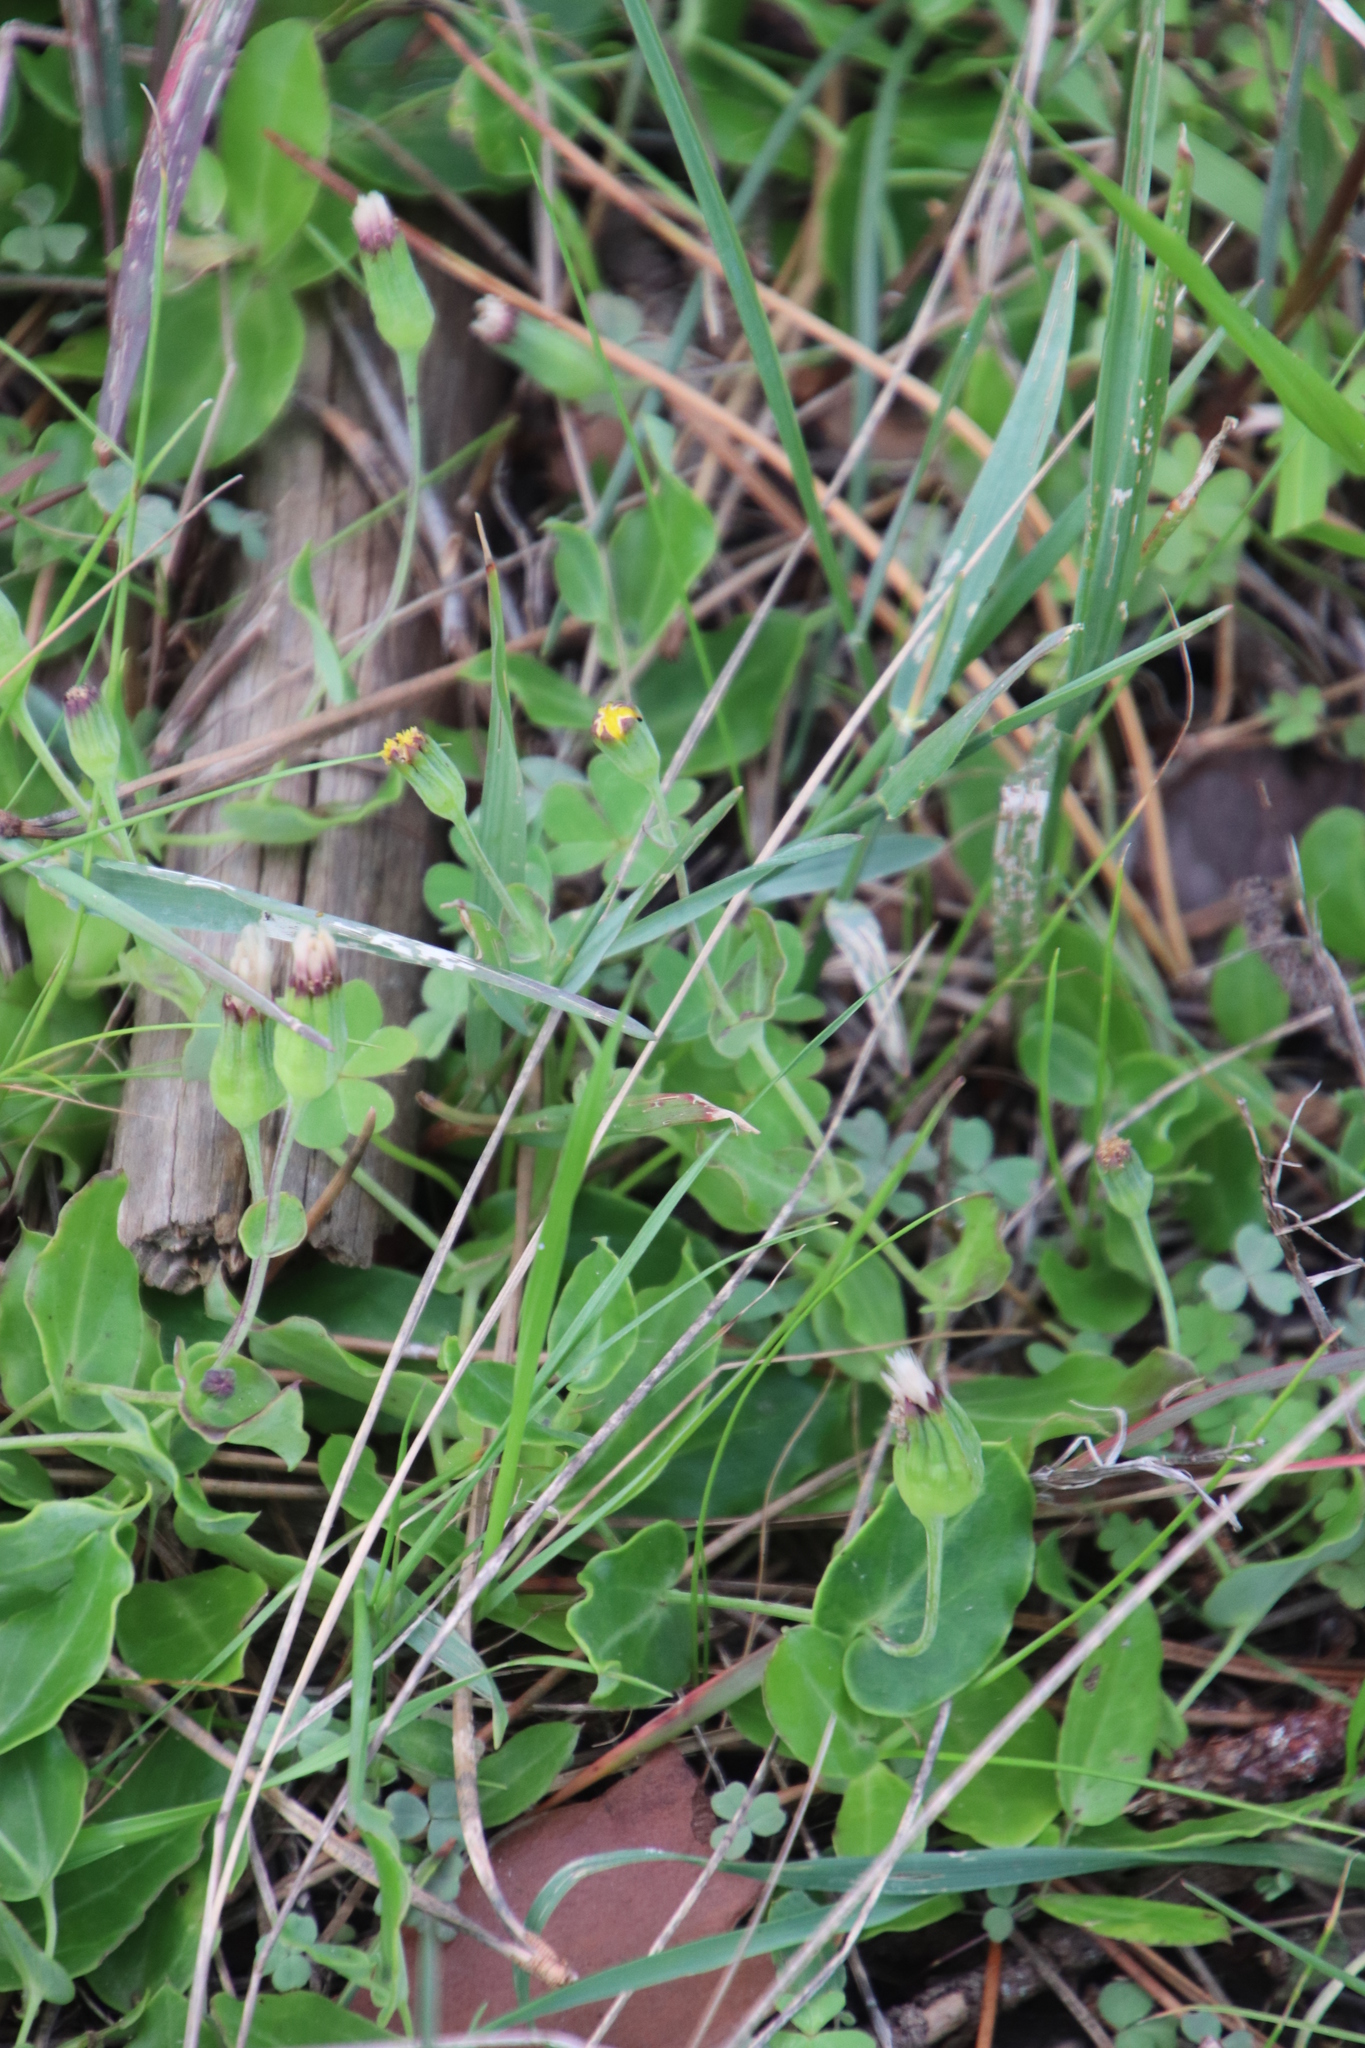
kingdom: Plantae
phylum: Tracheophyta
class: Magnoliopsida
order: Asterales
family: Asteraceae
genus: Othonna
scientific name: Othonna undulosa
